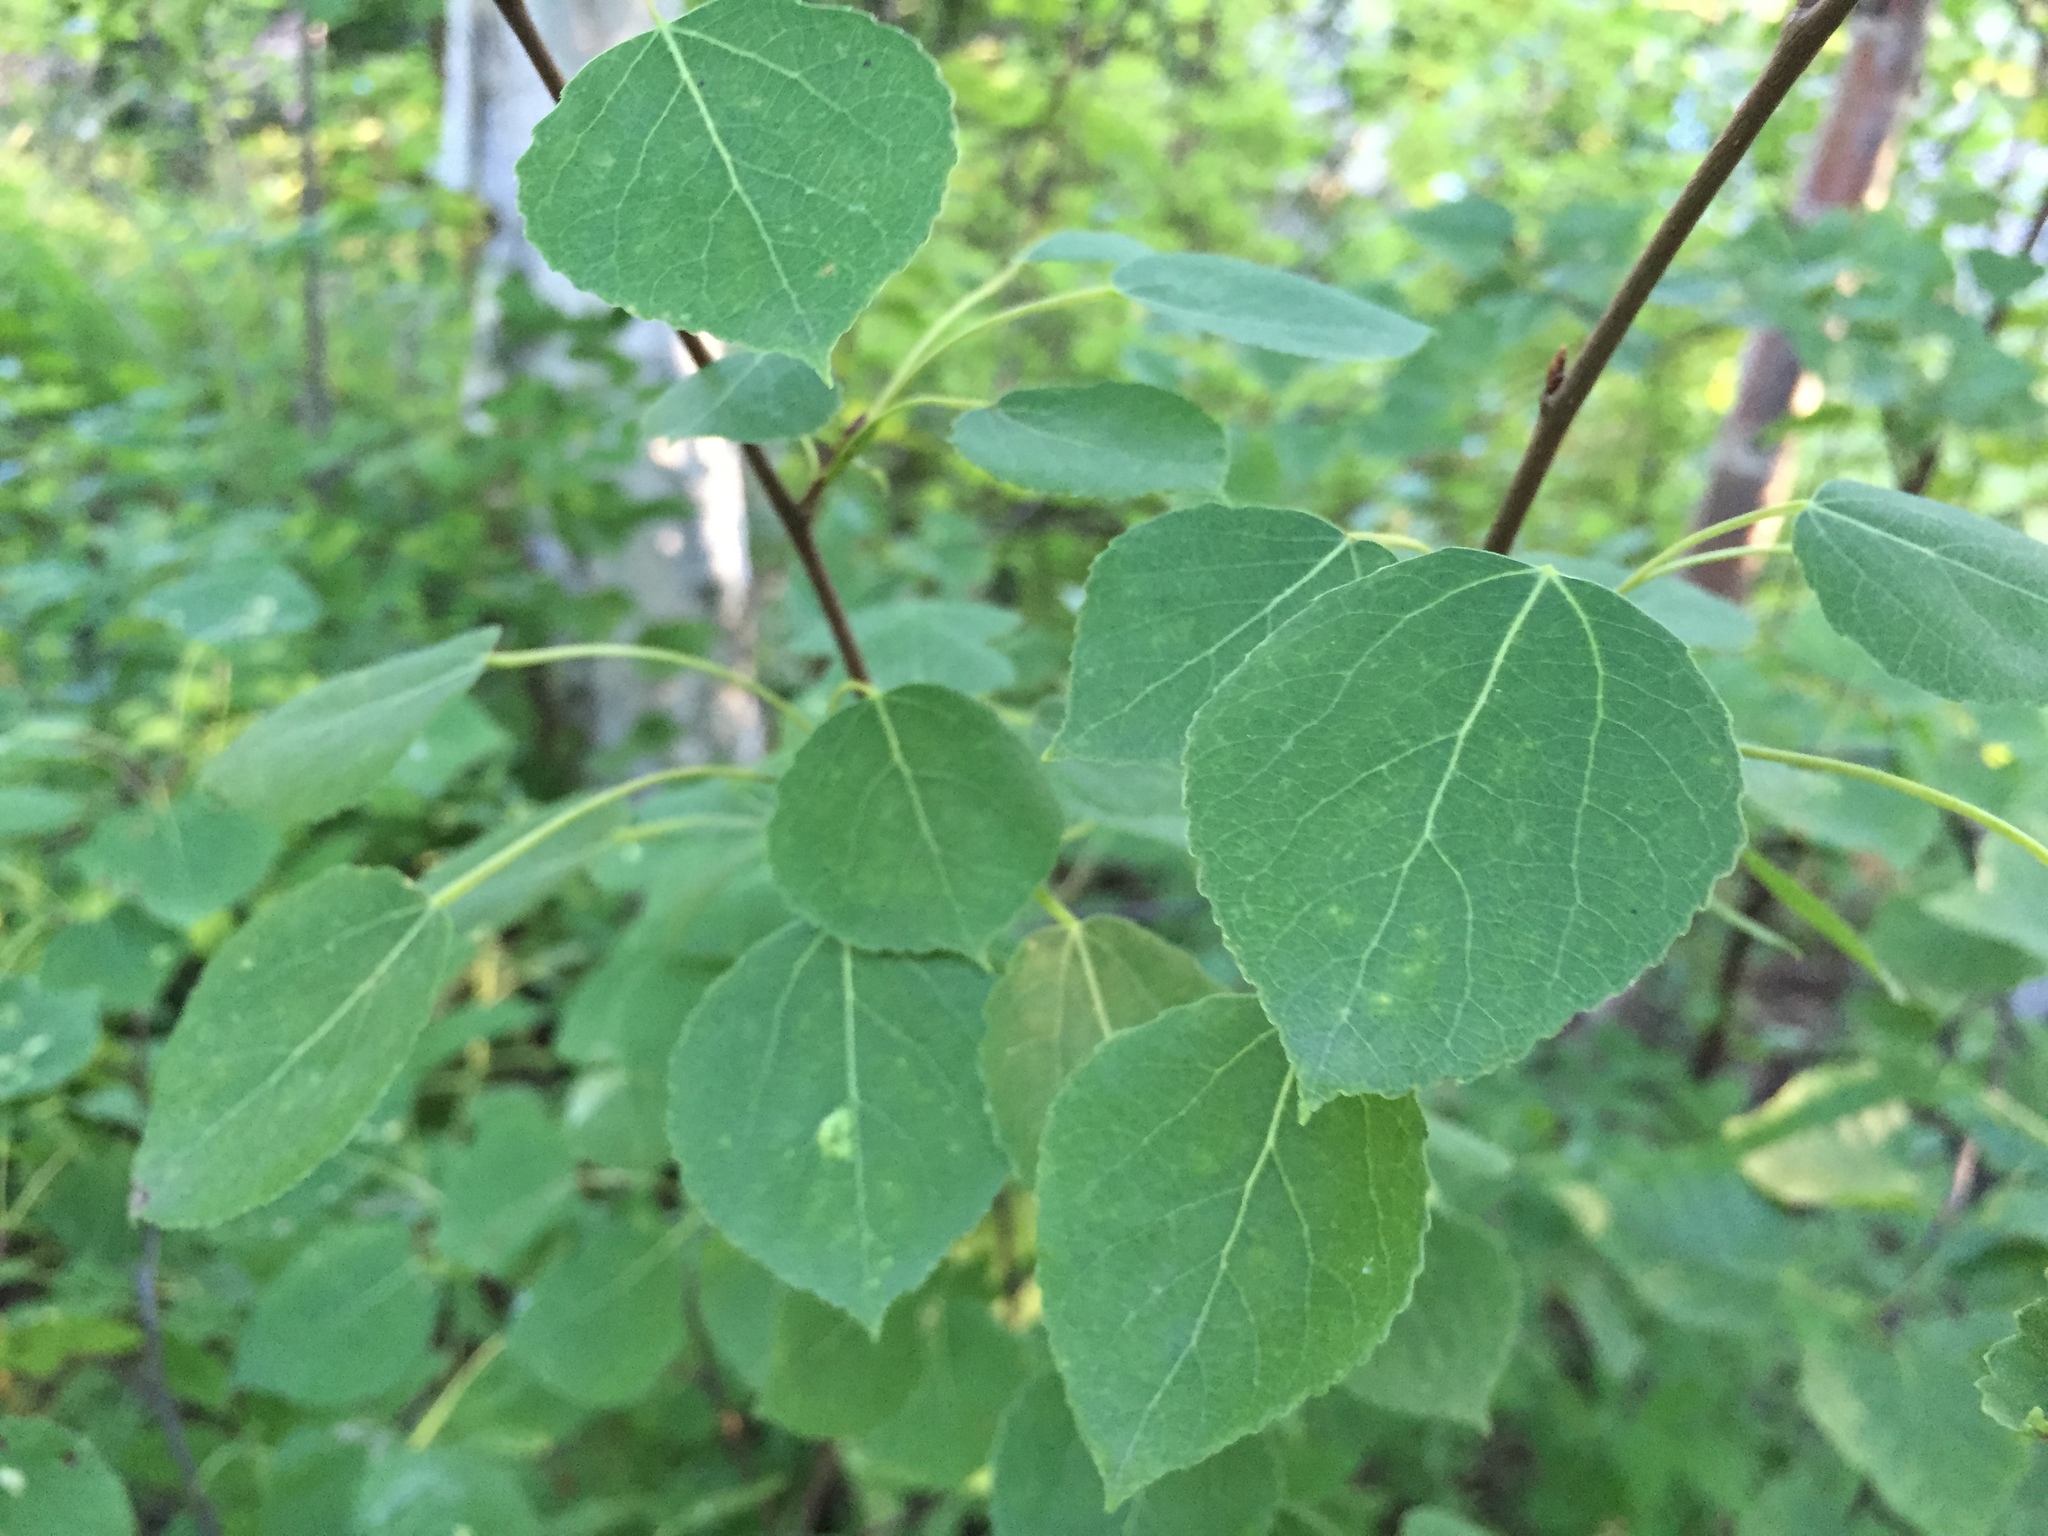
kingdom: Plantae
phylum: Tracheophyta
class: Magnoliopsida
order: Malpighiales
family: Salicaceae
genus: Populus
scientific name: Populus tremuloides
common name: Quaking aspen
